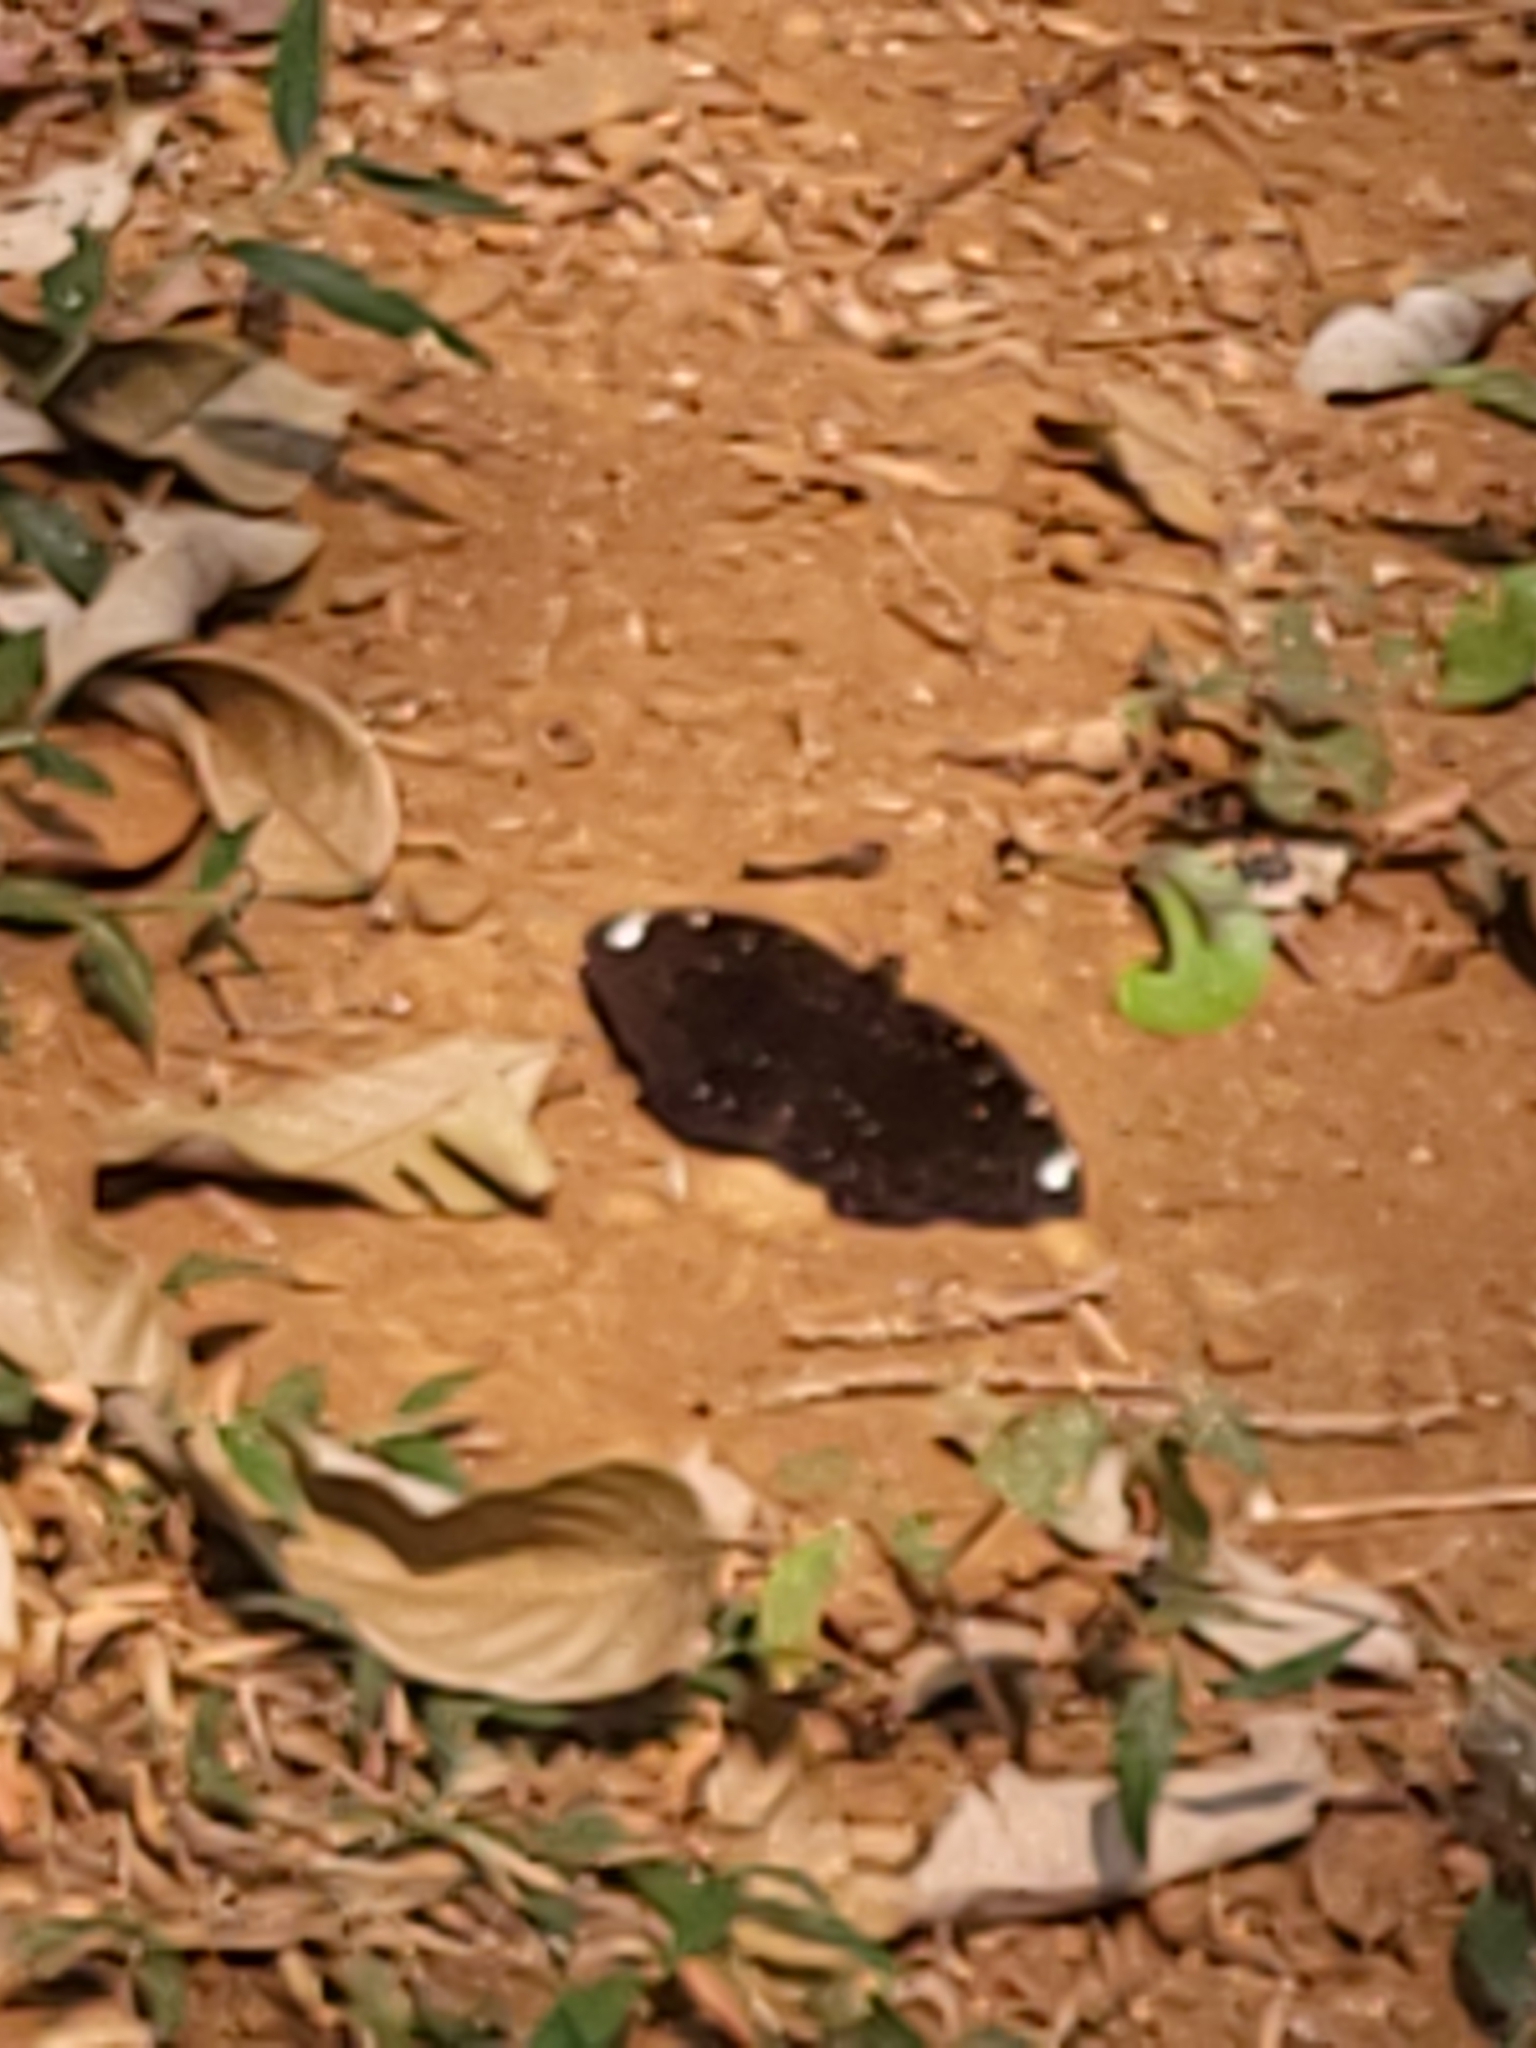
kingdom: Animalia
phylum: Arthropoda
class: Insecta
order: Lepidoptera
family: Nymphalidae
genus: Lexias
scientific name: Lexias
